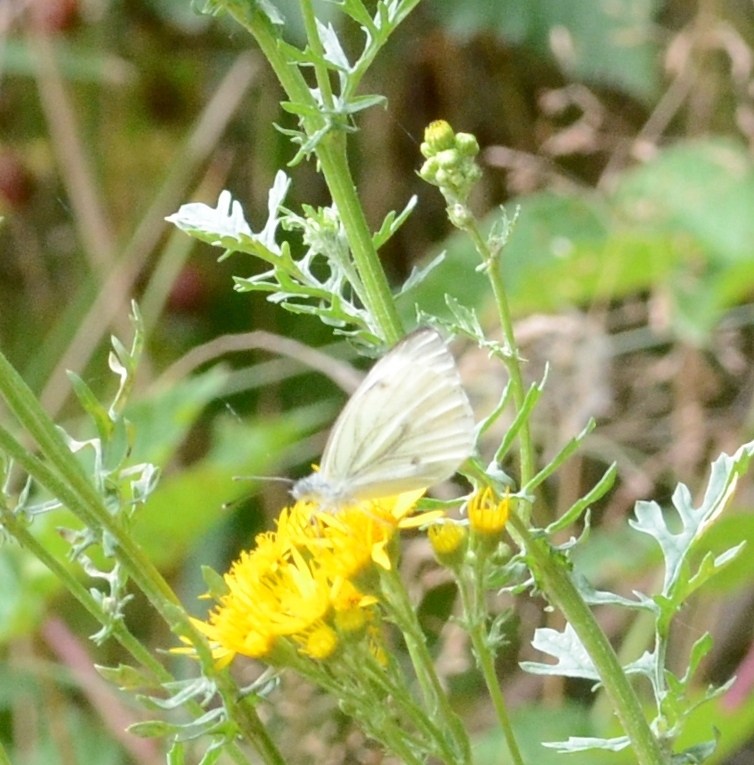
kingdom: Animalia
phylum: Arthropoda
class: Insecta
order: Lepidoptera
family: Pieridae
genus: Pieris
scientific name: Pieris napi
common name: Green-veined white
